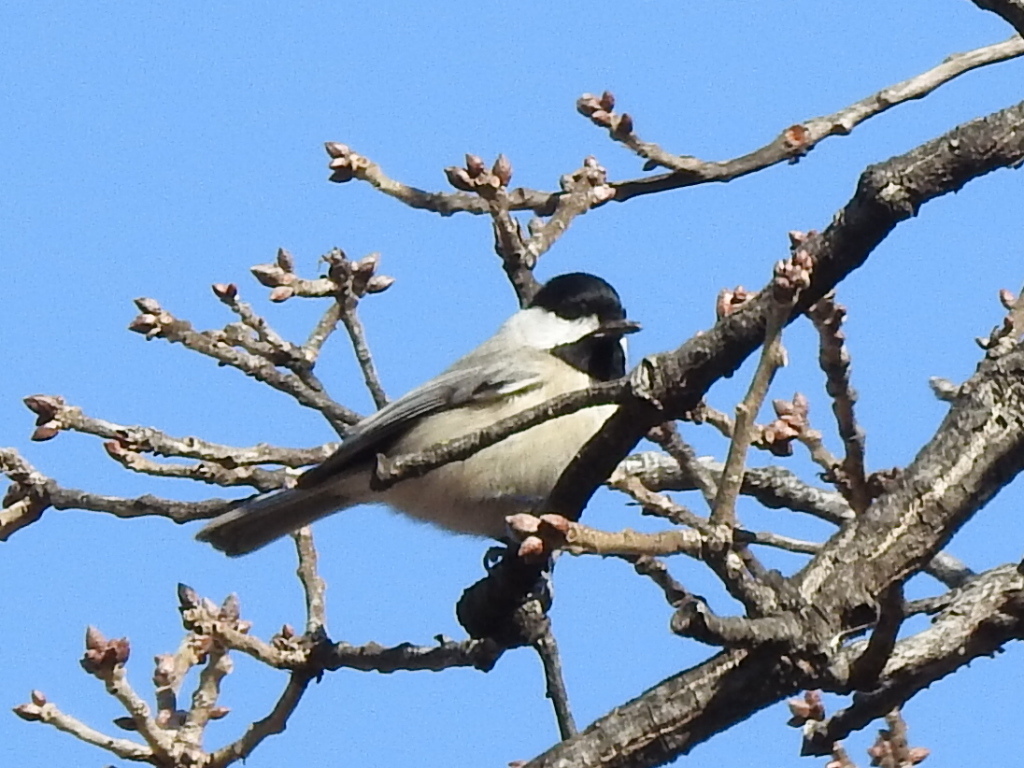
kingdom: Animalia
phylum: Chordata
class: Aves
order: Passeriformes
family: Paridae
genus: Poecile
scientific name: Poecile carolinensis
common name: Carolina chickadee
